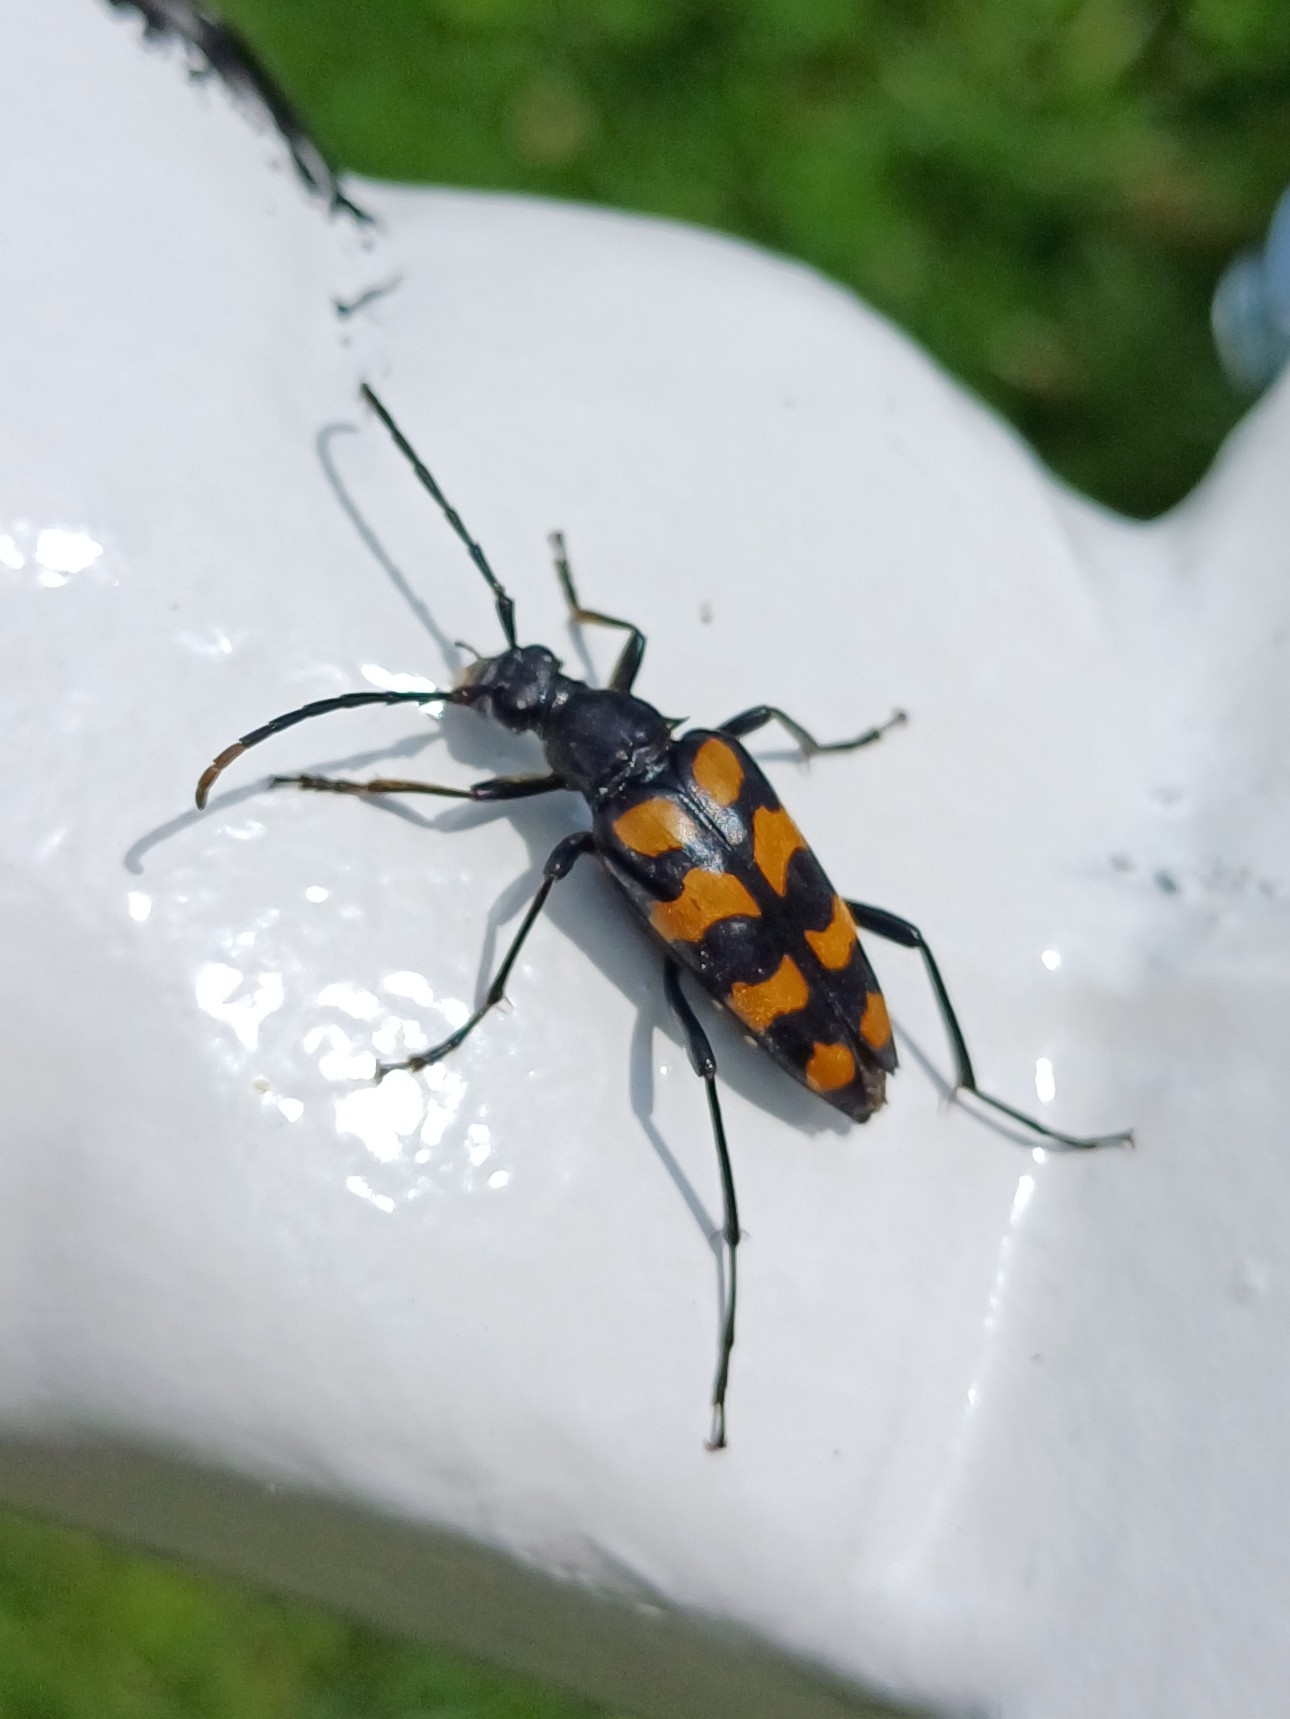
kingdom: Animalia
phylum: Arthropoda
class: Insecta
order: Coleoptera
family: Cerambycidae
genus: Leptura
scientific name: Leptura quadrifasciata
